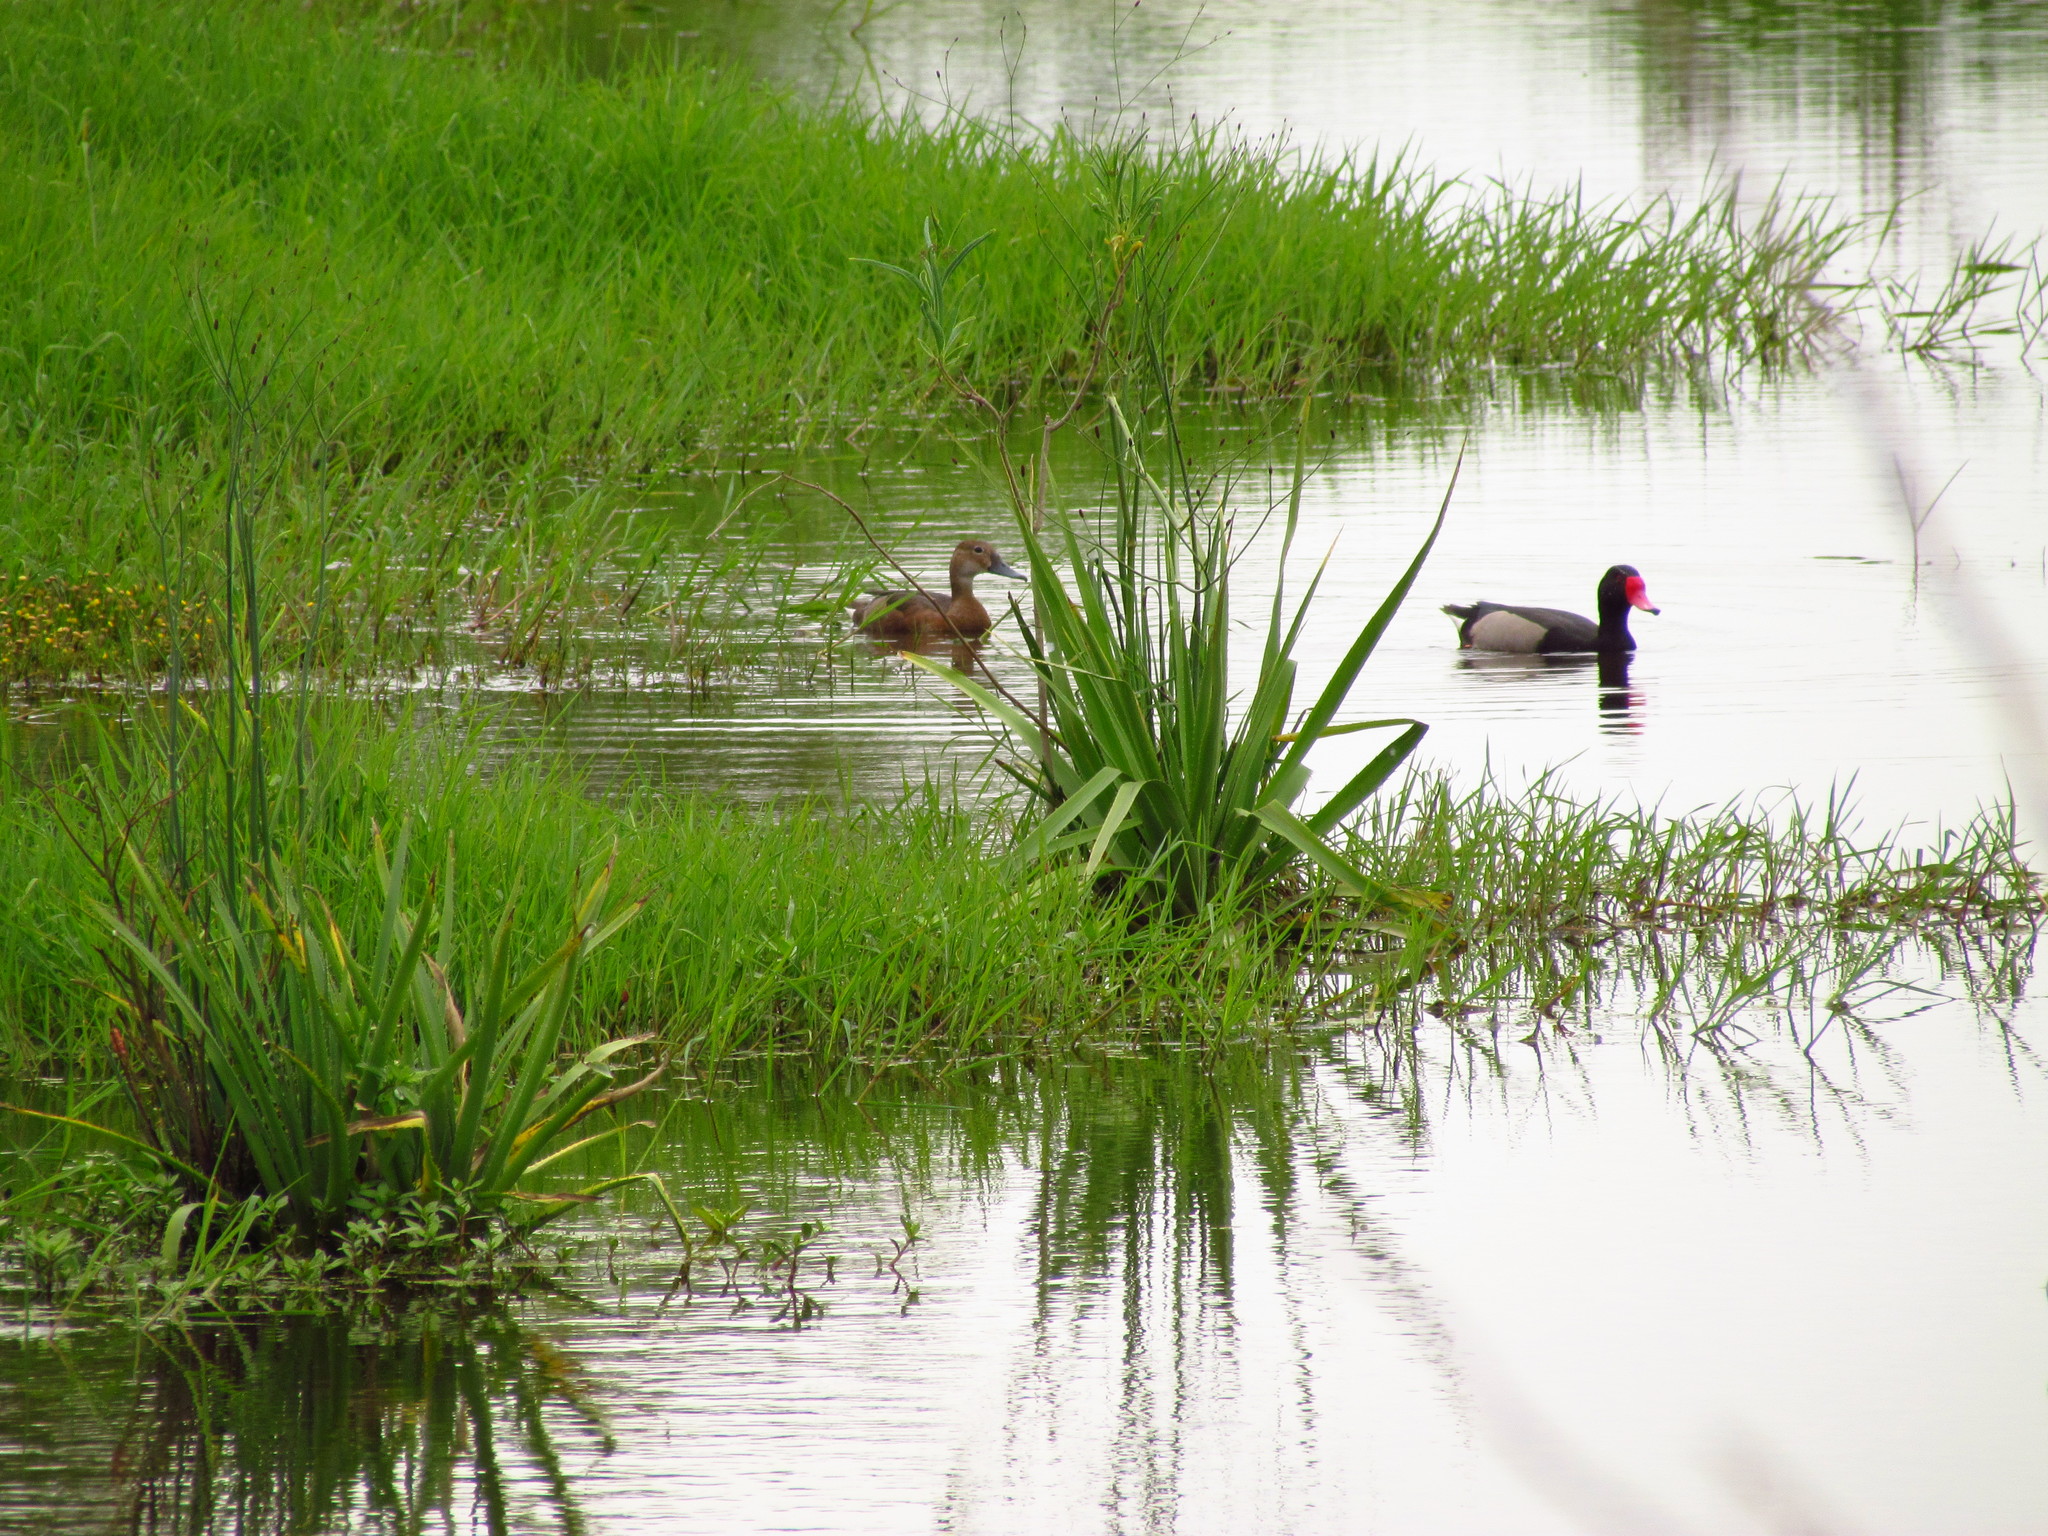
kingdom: Animalia
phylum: Chordata
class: Aves
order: Anseriformes
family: Anatidae
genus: Netta
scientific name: Netta peposaca
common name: Rosy-billed pochard
